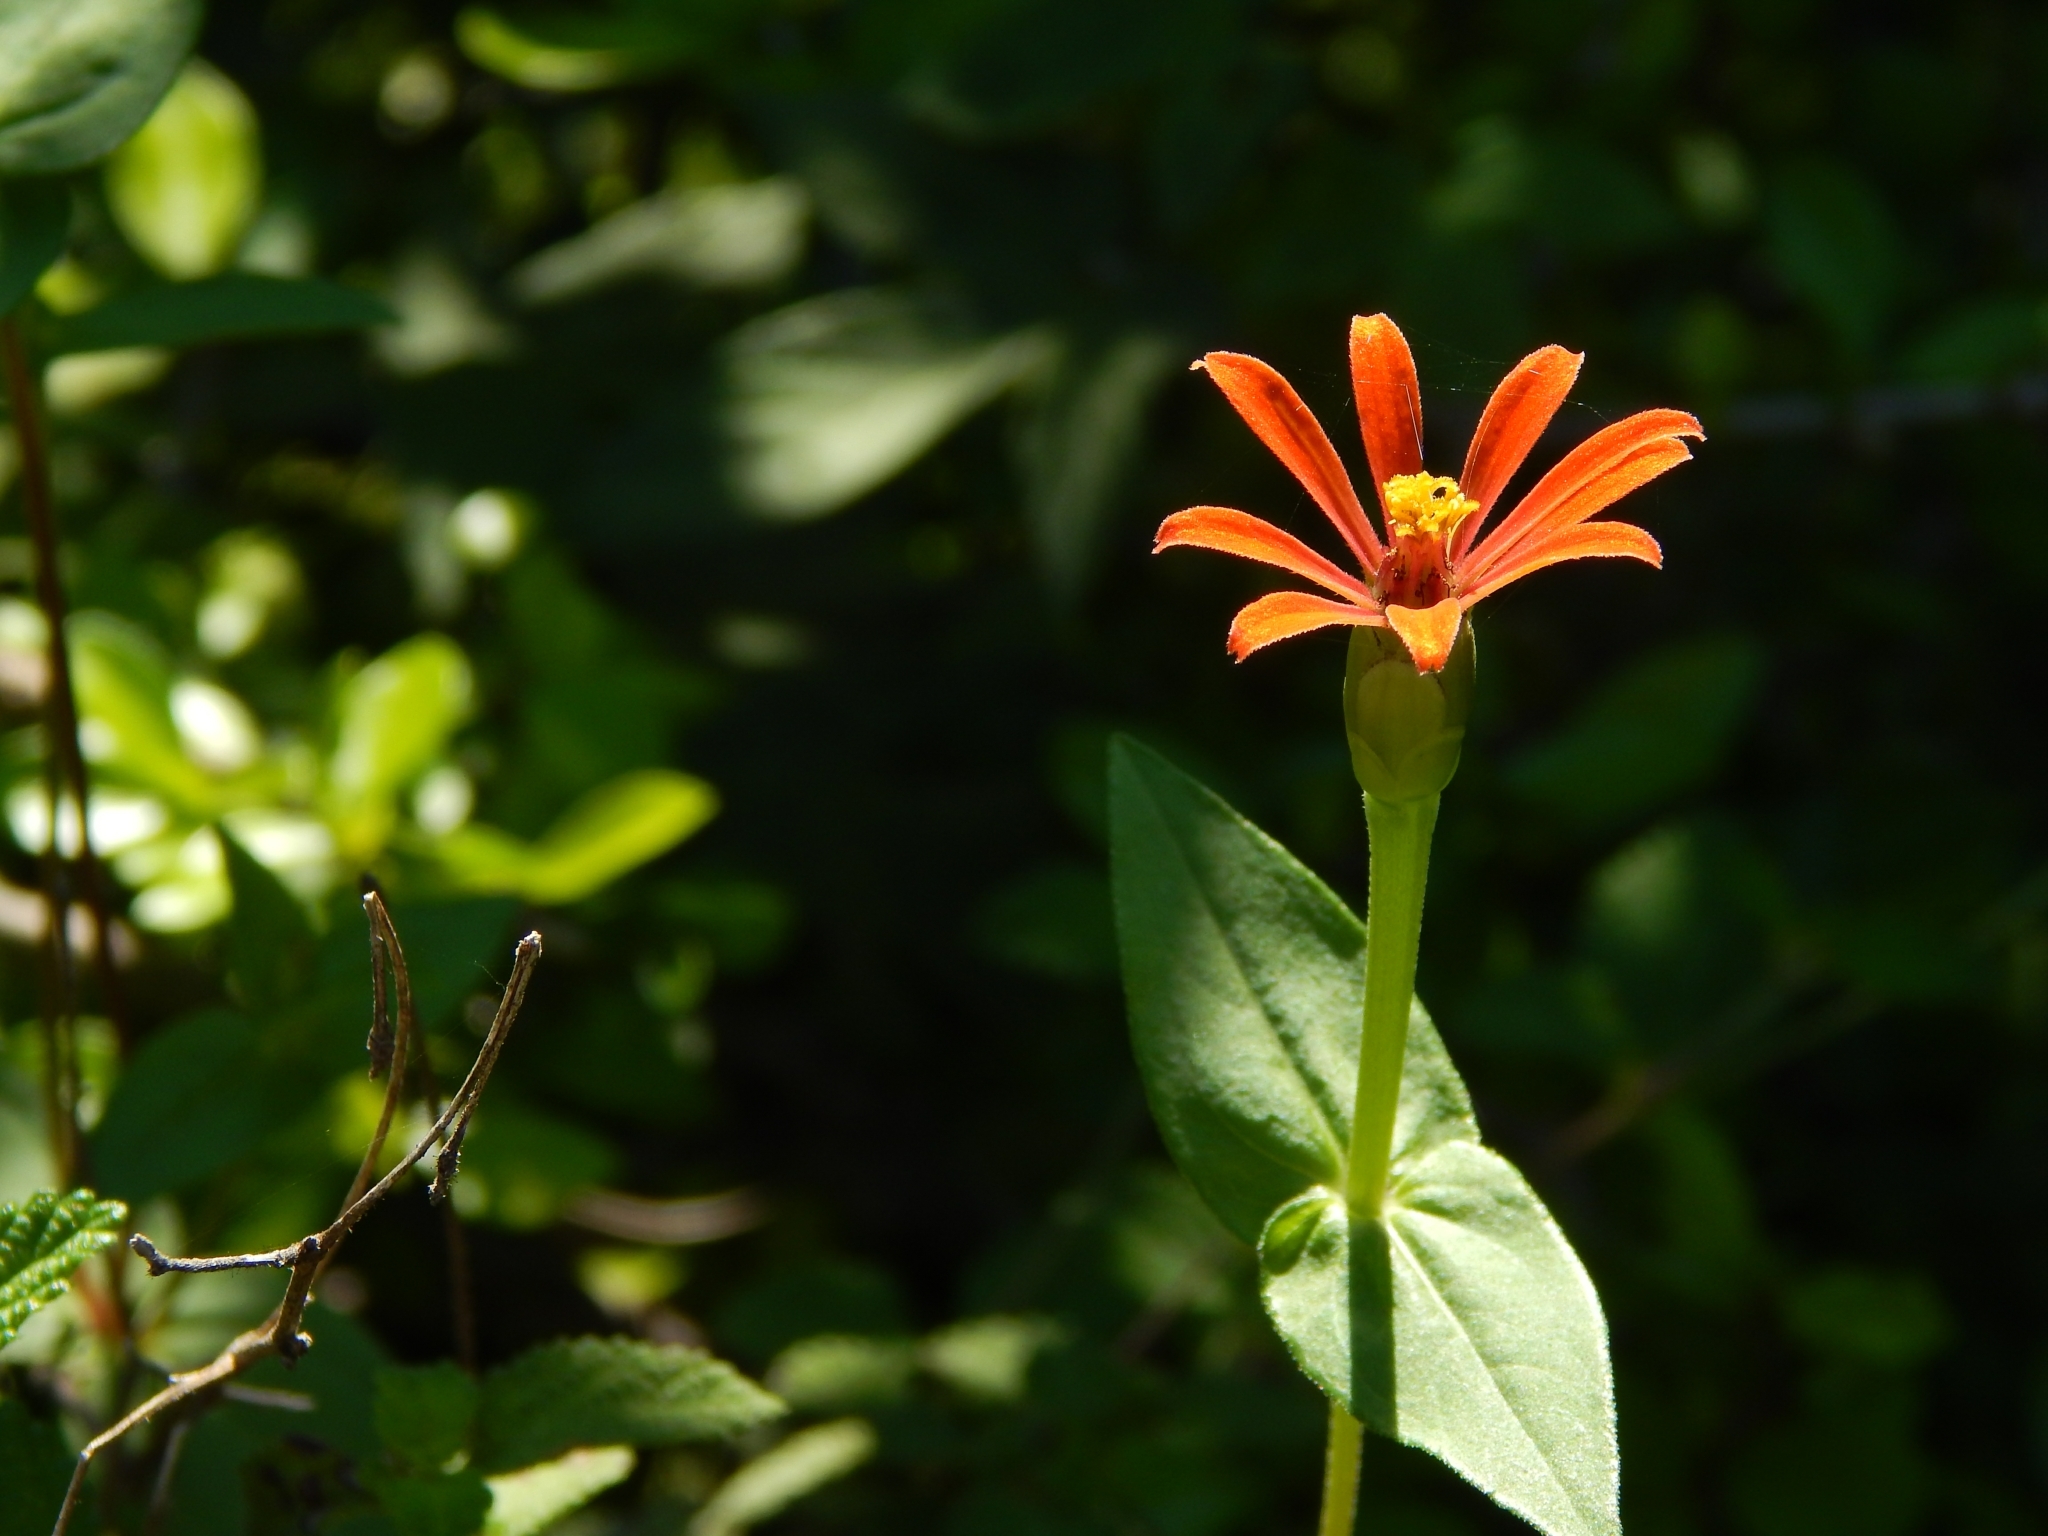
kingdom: Plantae
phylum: Tracheophyta
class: Magnoliopsida
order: Asterales
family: Asteraceae
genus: Zinnia
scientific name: Zinnia peruviana
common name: Peruvian zinnia
